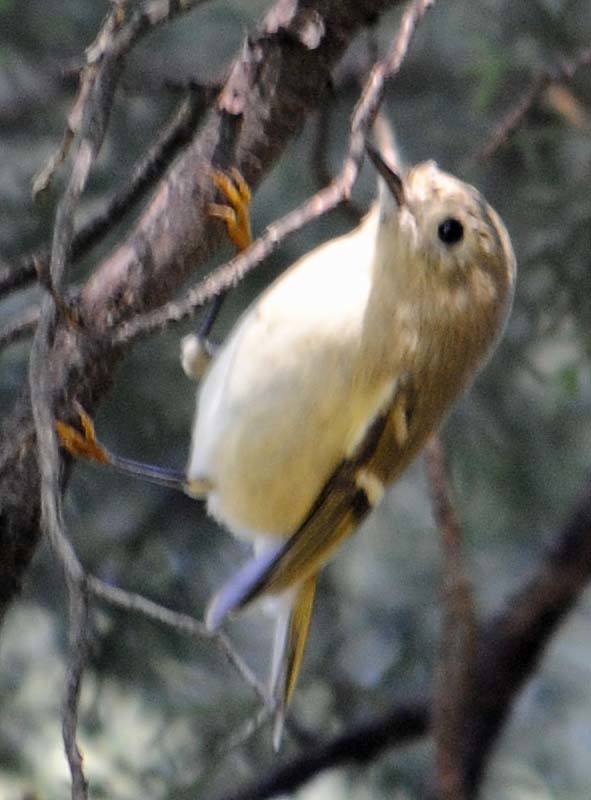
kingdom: Animalia
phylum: Chordata
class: Aves
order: Passeriformes
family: Regulidae
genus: Regulus
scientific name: Regulus calendula
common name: Ruby-crowned kinglet
